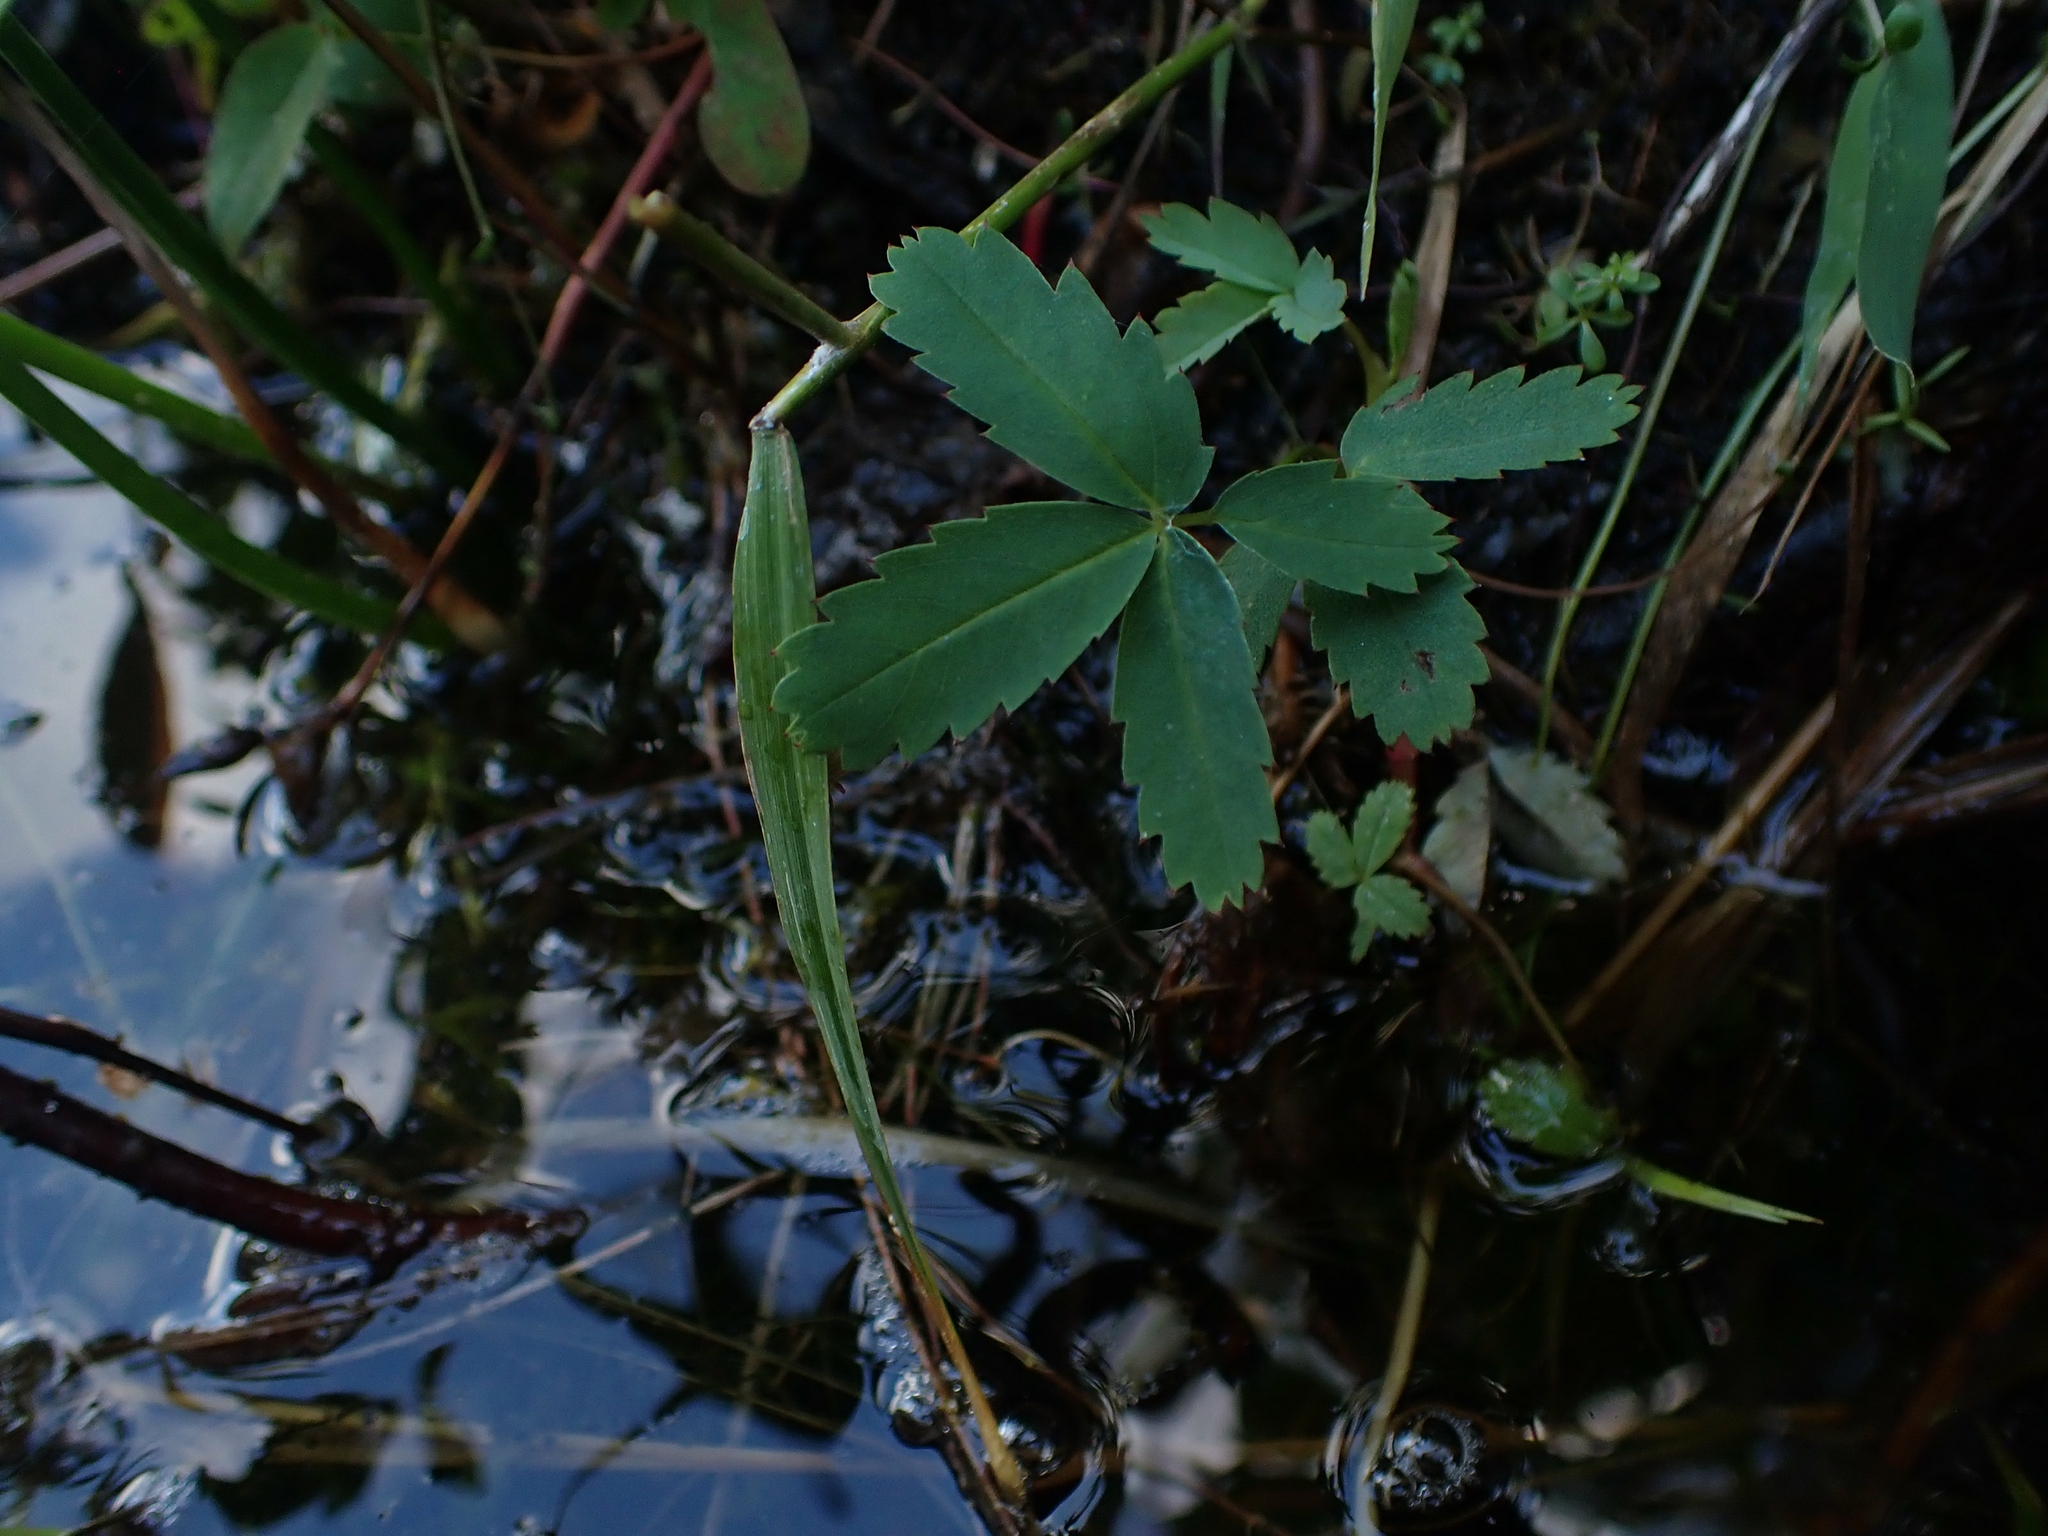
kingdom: Plantae
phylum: Tracheophyta
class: Magnoliopsida
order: Rosales
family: Rosaceae
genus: Comarum
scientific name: Comarum palustre
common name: Marsh cinquefoil
